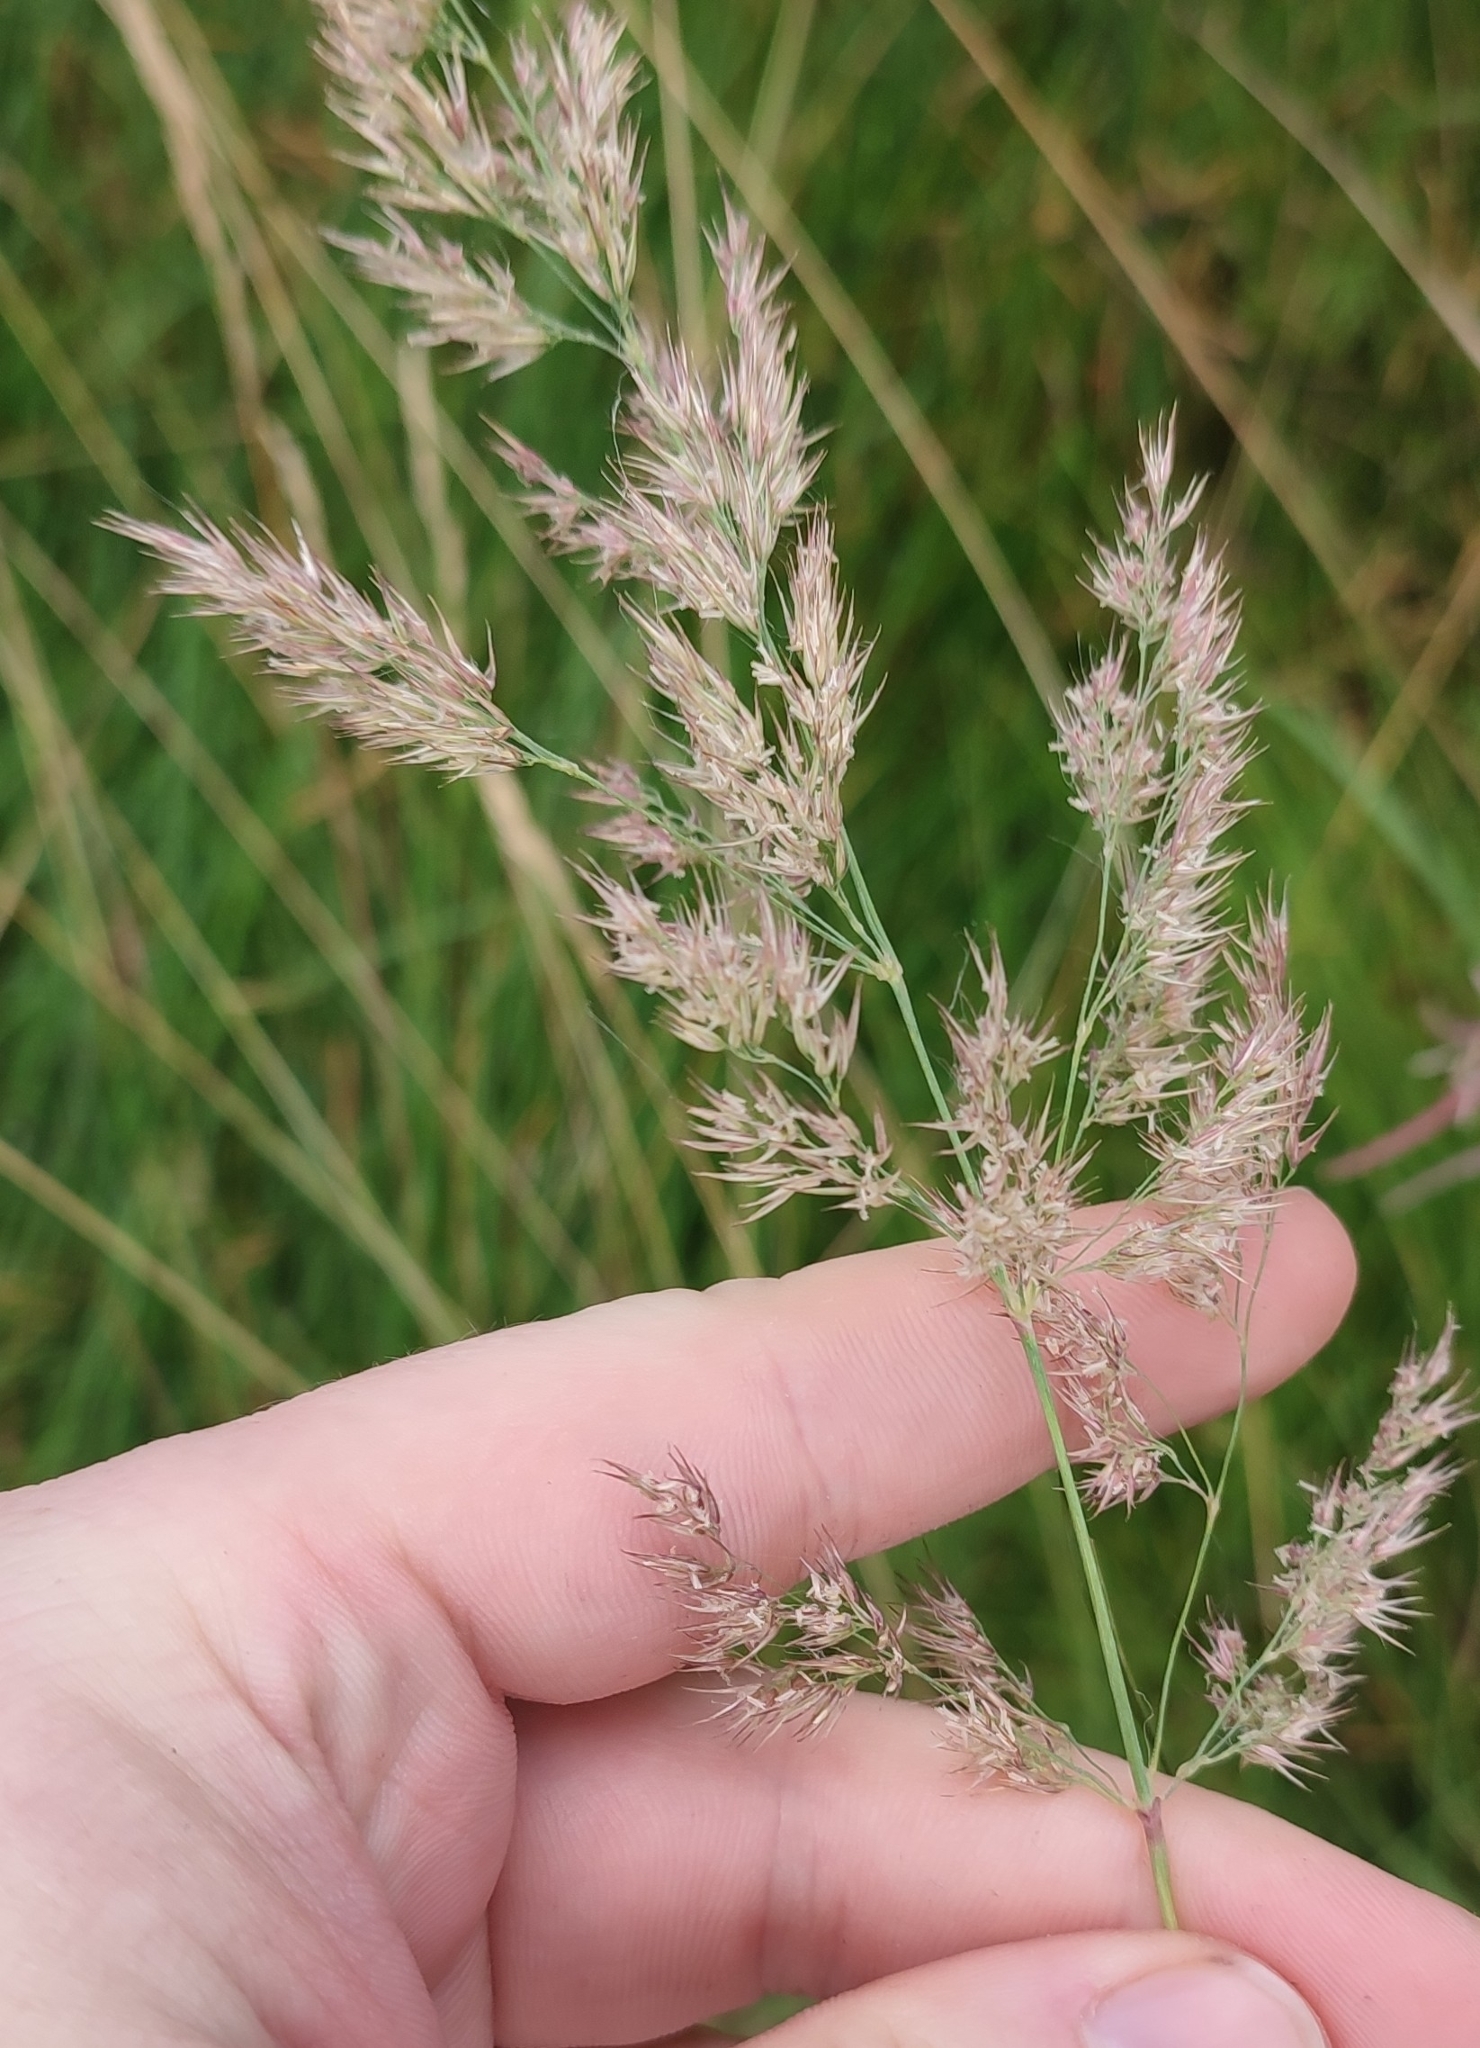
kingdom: Plantae
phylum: Tracheophyta
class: Liliopsida
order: Poales
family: Poaceae
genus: Calamagrostis
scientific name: Calamagrostis purpurea
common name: Scandinavian small-reed
